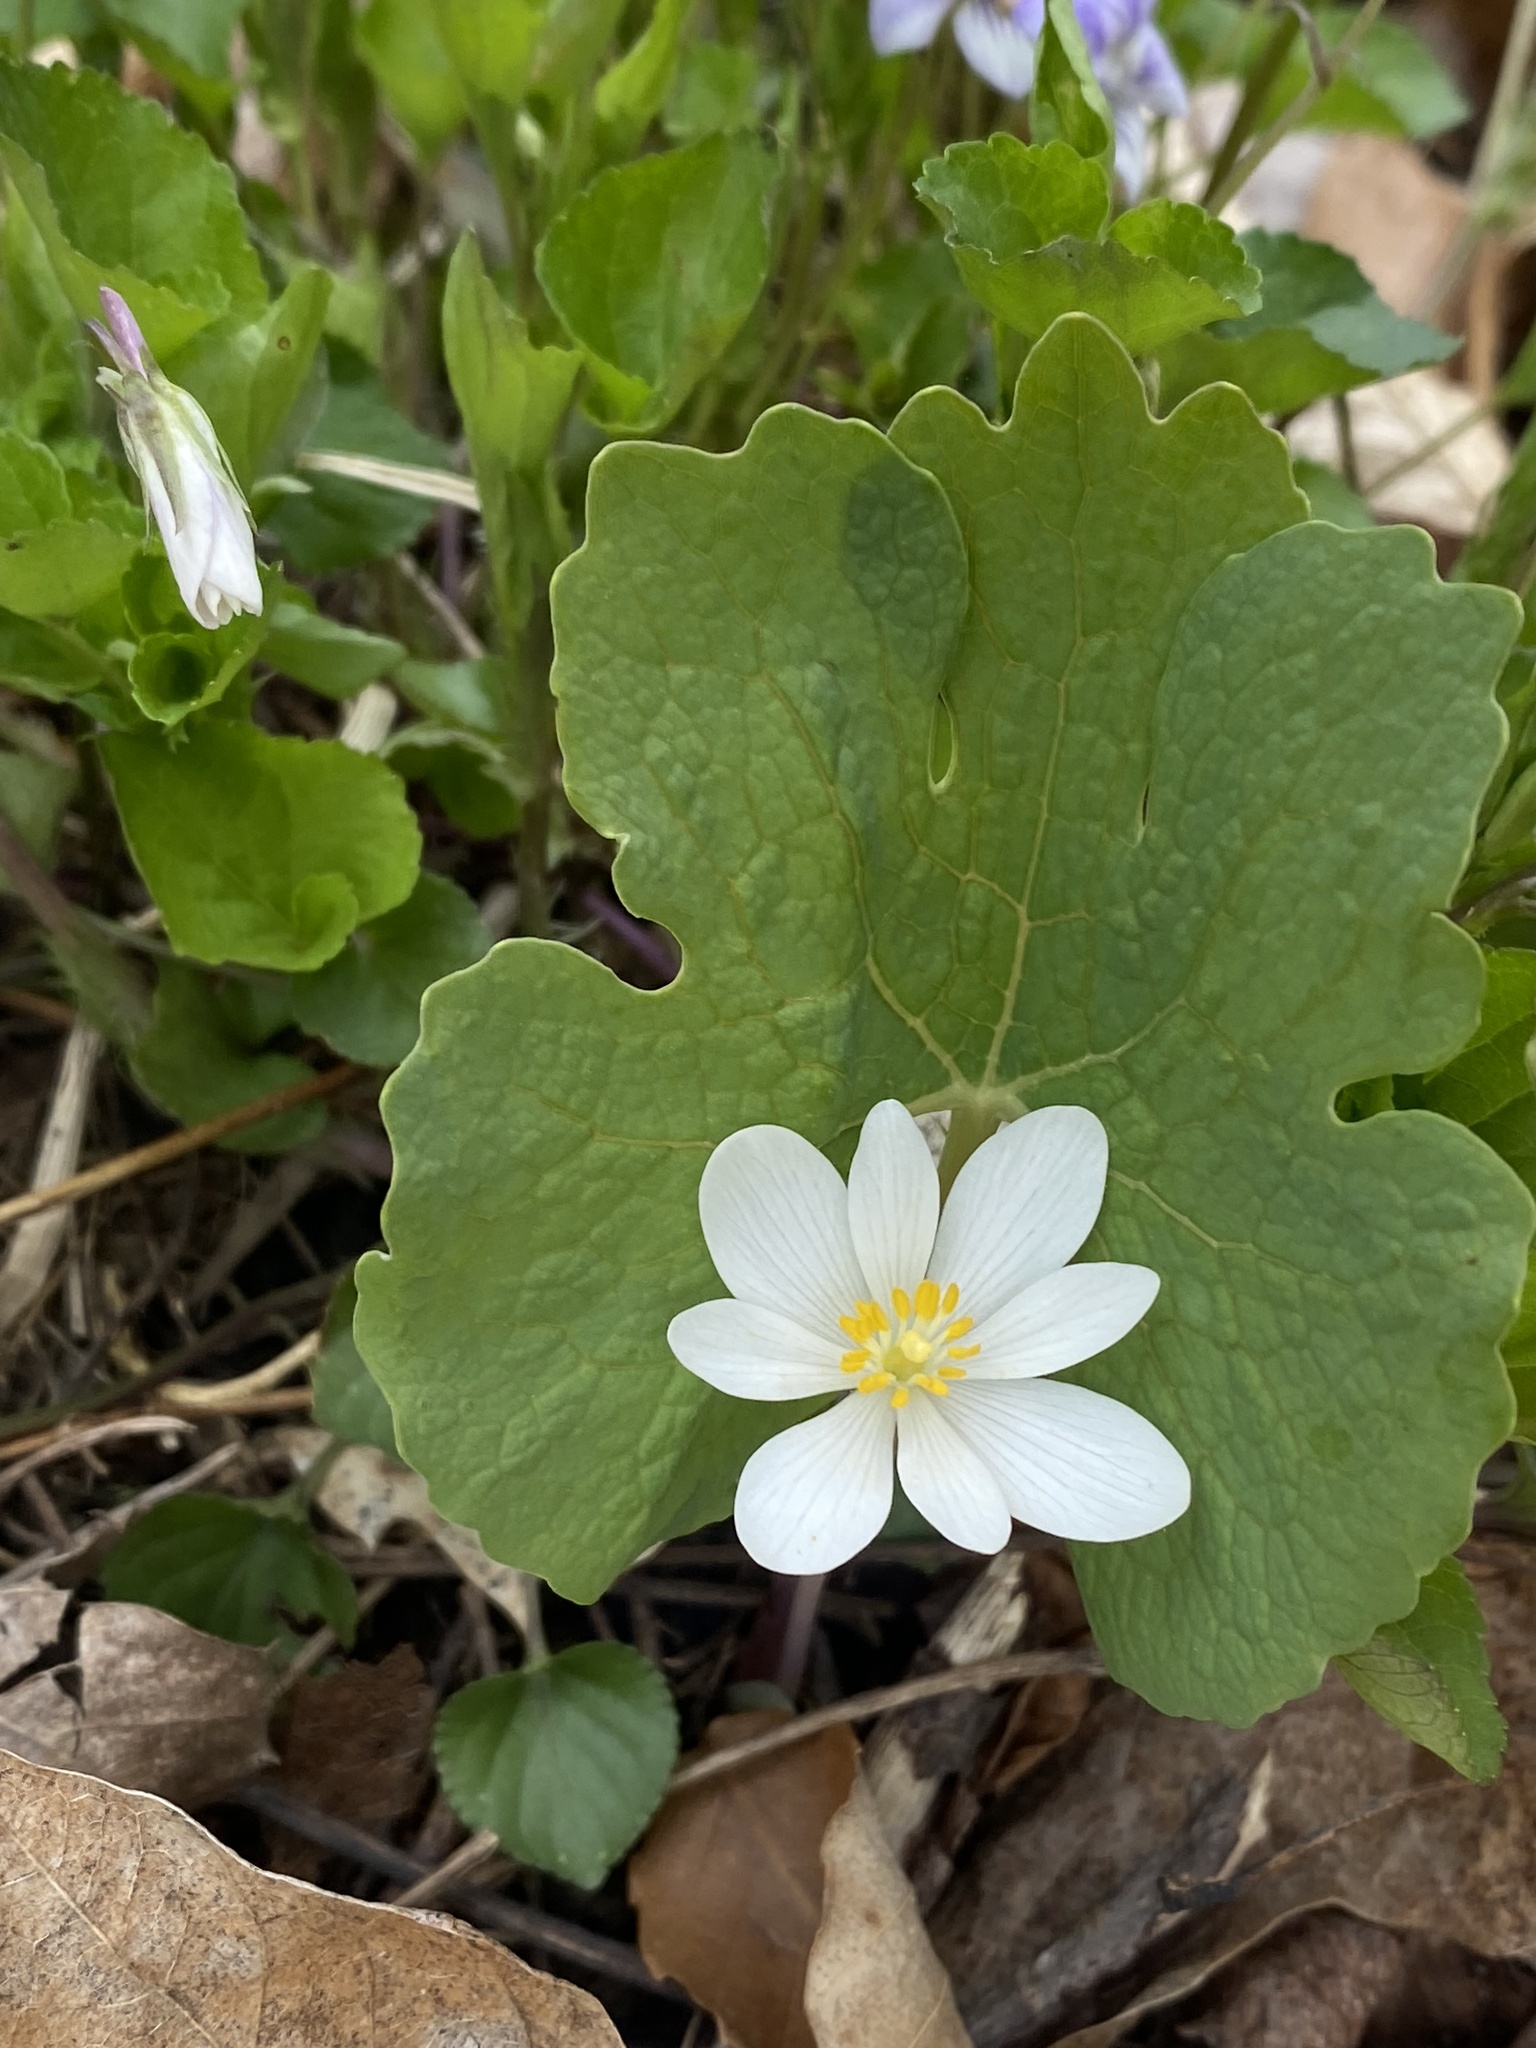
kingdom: Plantae
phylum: Tracheophyta
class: Magnoliopsida
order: Ranunculales
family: Papaveraceae
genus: Sanguinaria
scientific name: Sanguinaria canadensis
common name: Bloodroot
